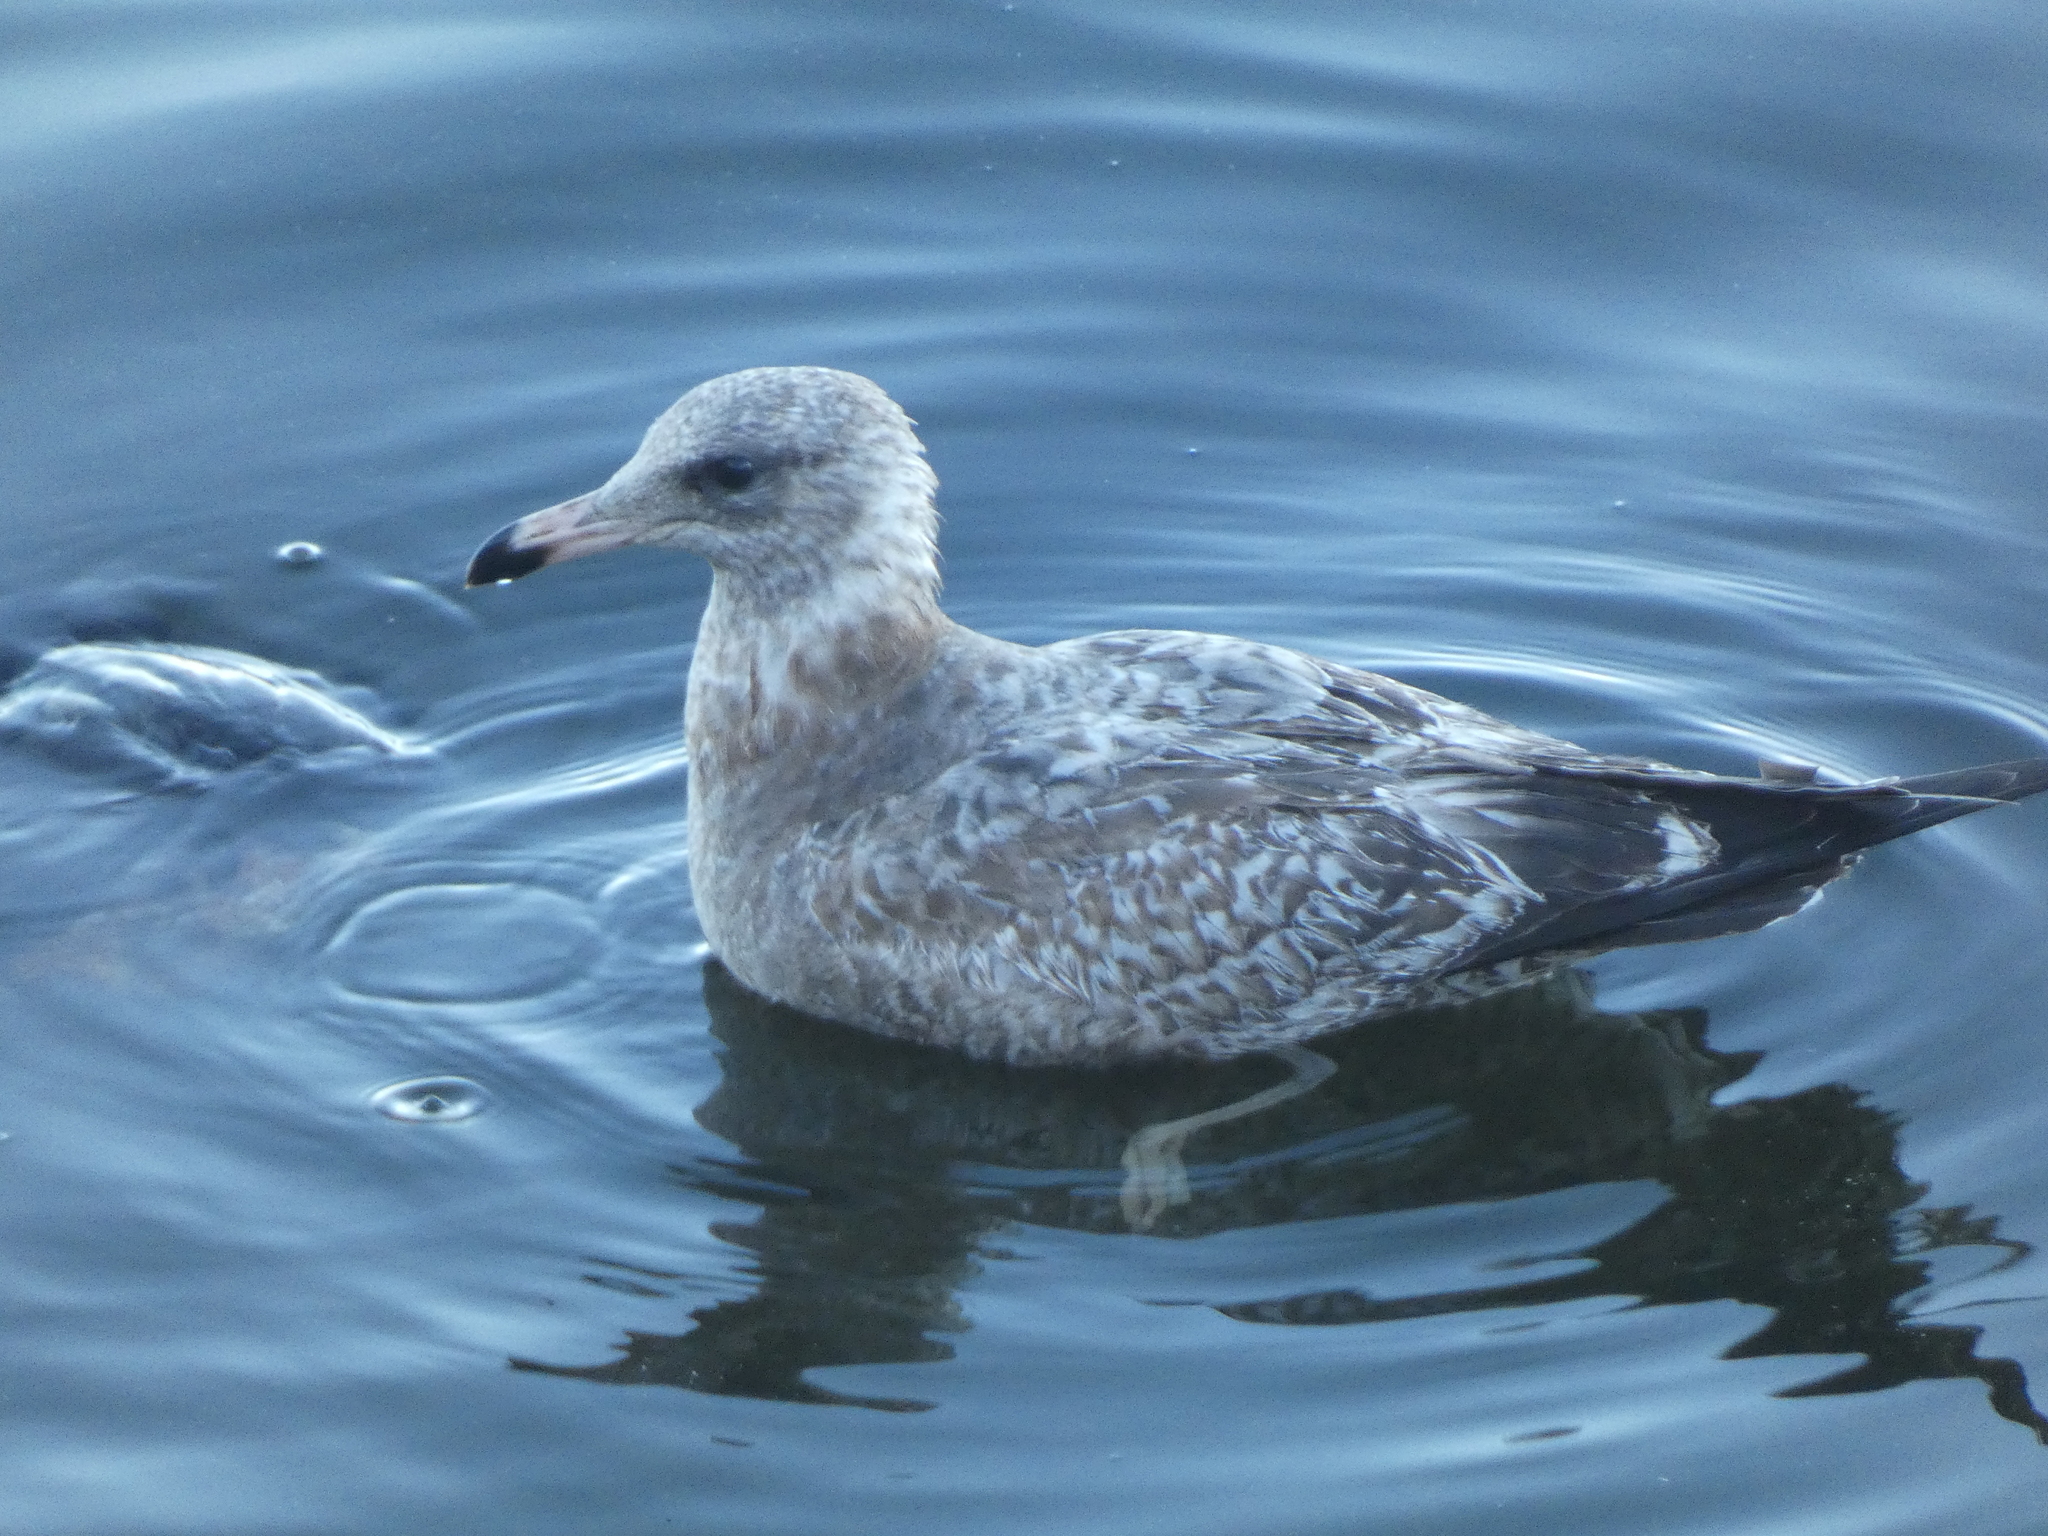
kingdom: Animalia
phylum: Chordata
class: Aves
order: Charadriiformes
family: Laridae
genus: Larus
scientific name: Larus californicus
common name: California gull
